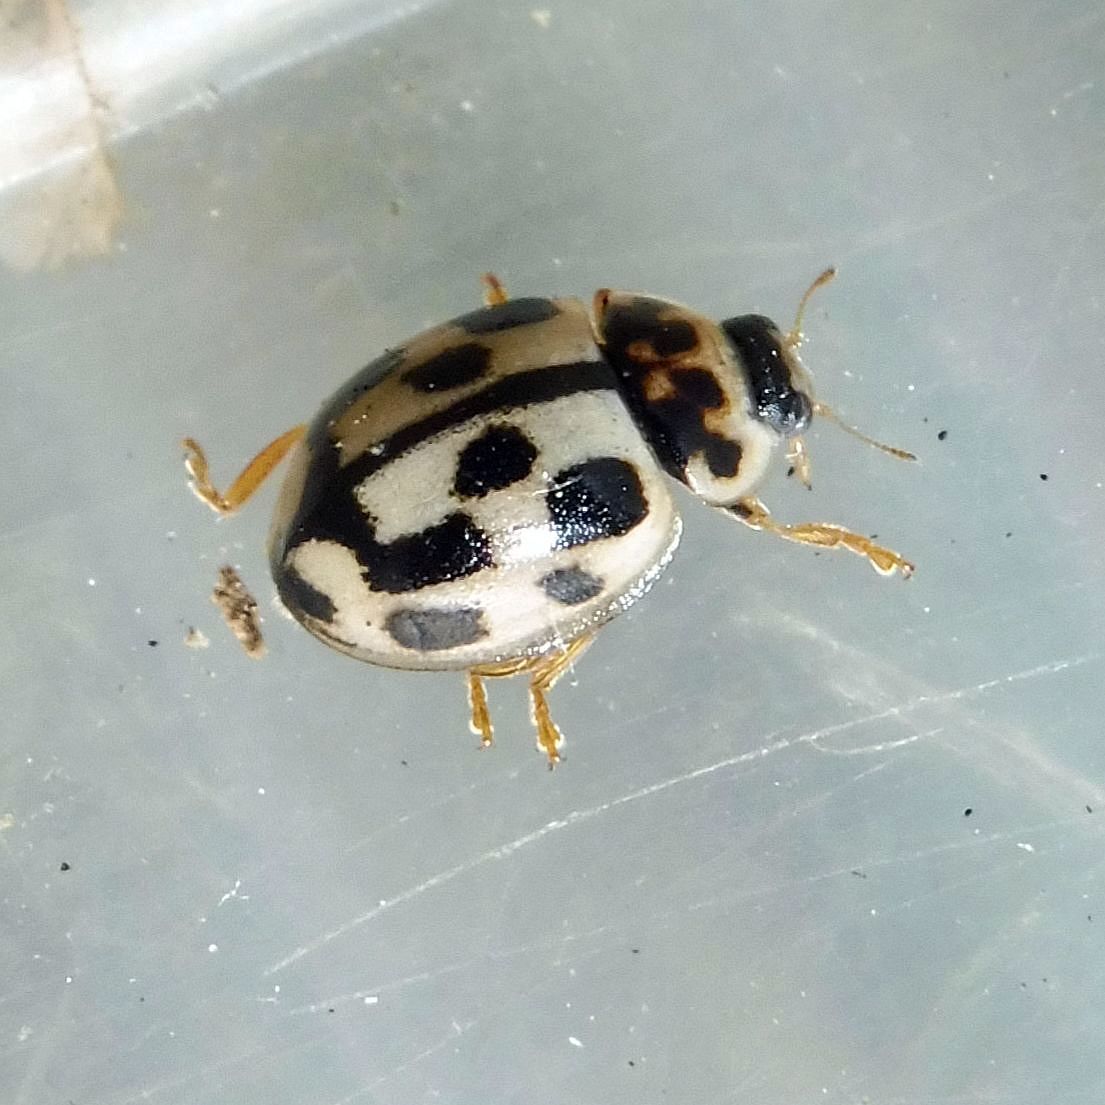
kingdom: Animalia
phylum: Arthropoda
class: Insecta
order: Coleoptera
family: Coccinellidae
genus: Propylaea
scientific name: Propylaea quatuordecimpunctata
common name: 14-spotted ladybird beetle
